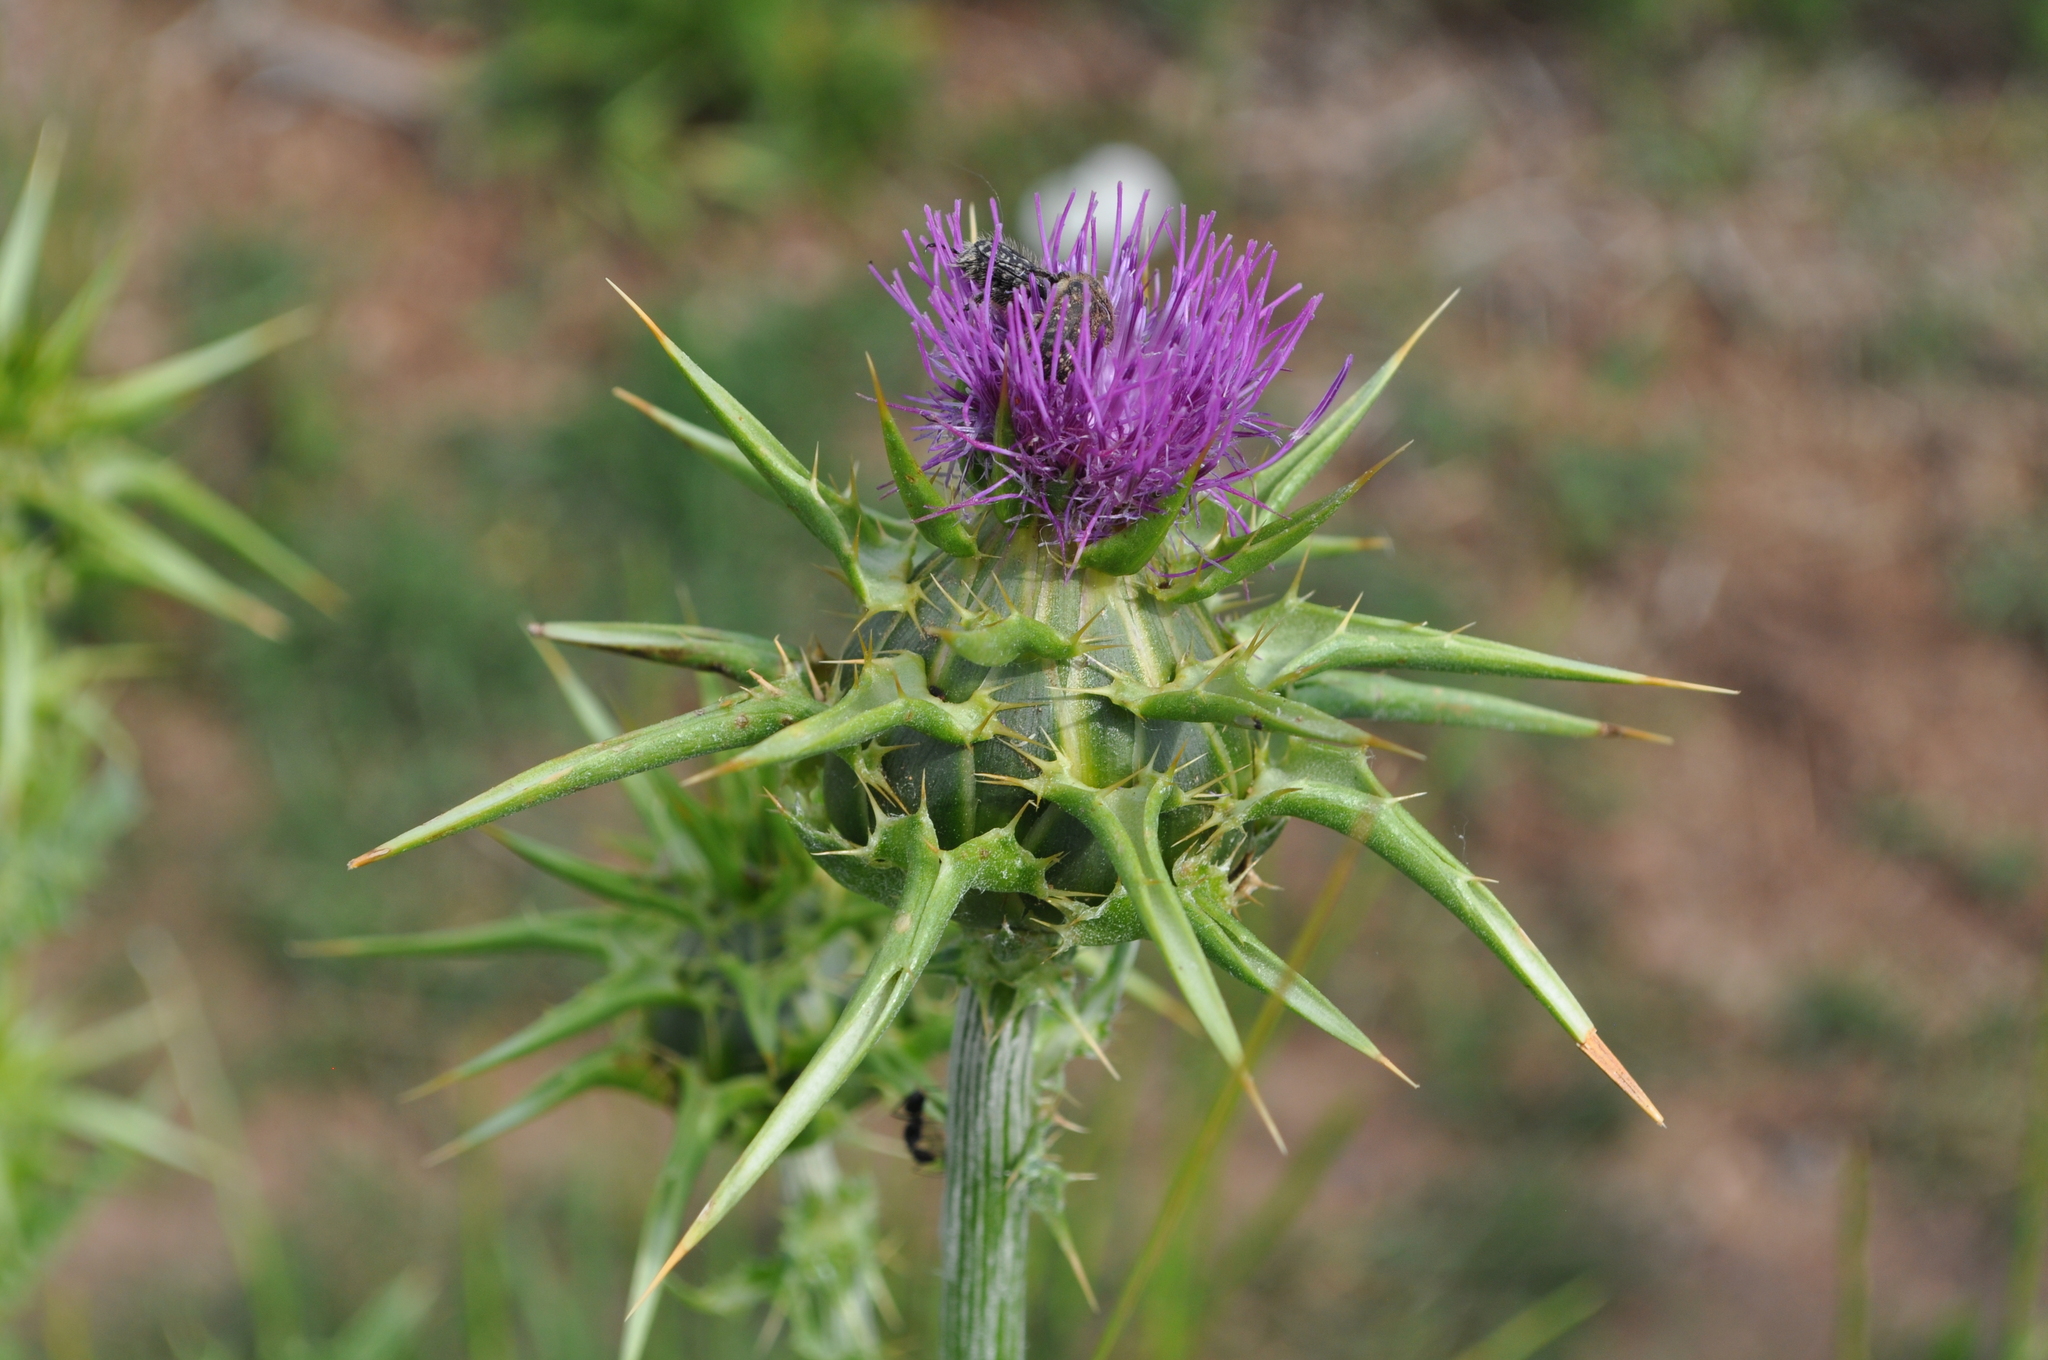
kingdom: Plantae
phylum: Tracheophyta
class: Magnoliopsida
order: Asterales
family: Asteraceae
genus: Silybum
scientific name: Silybum marianum
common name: Milk thistle
